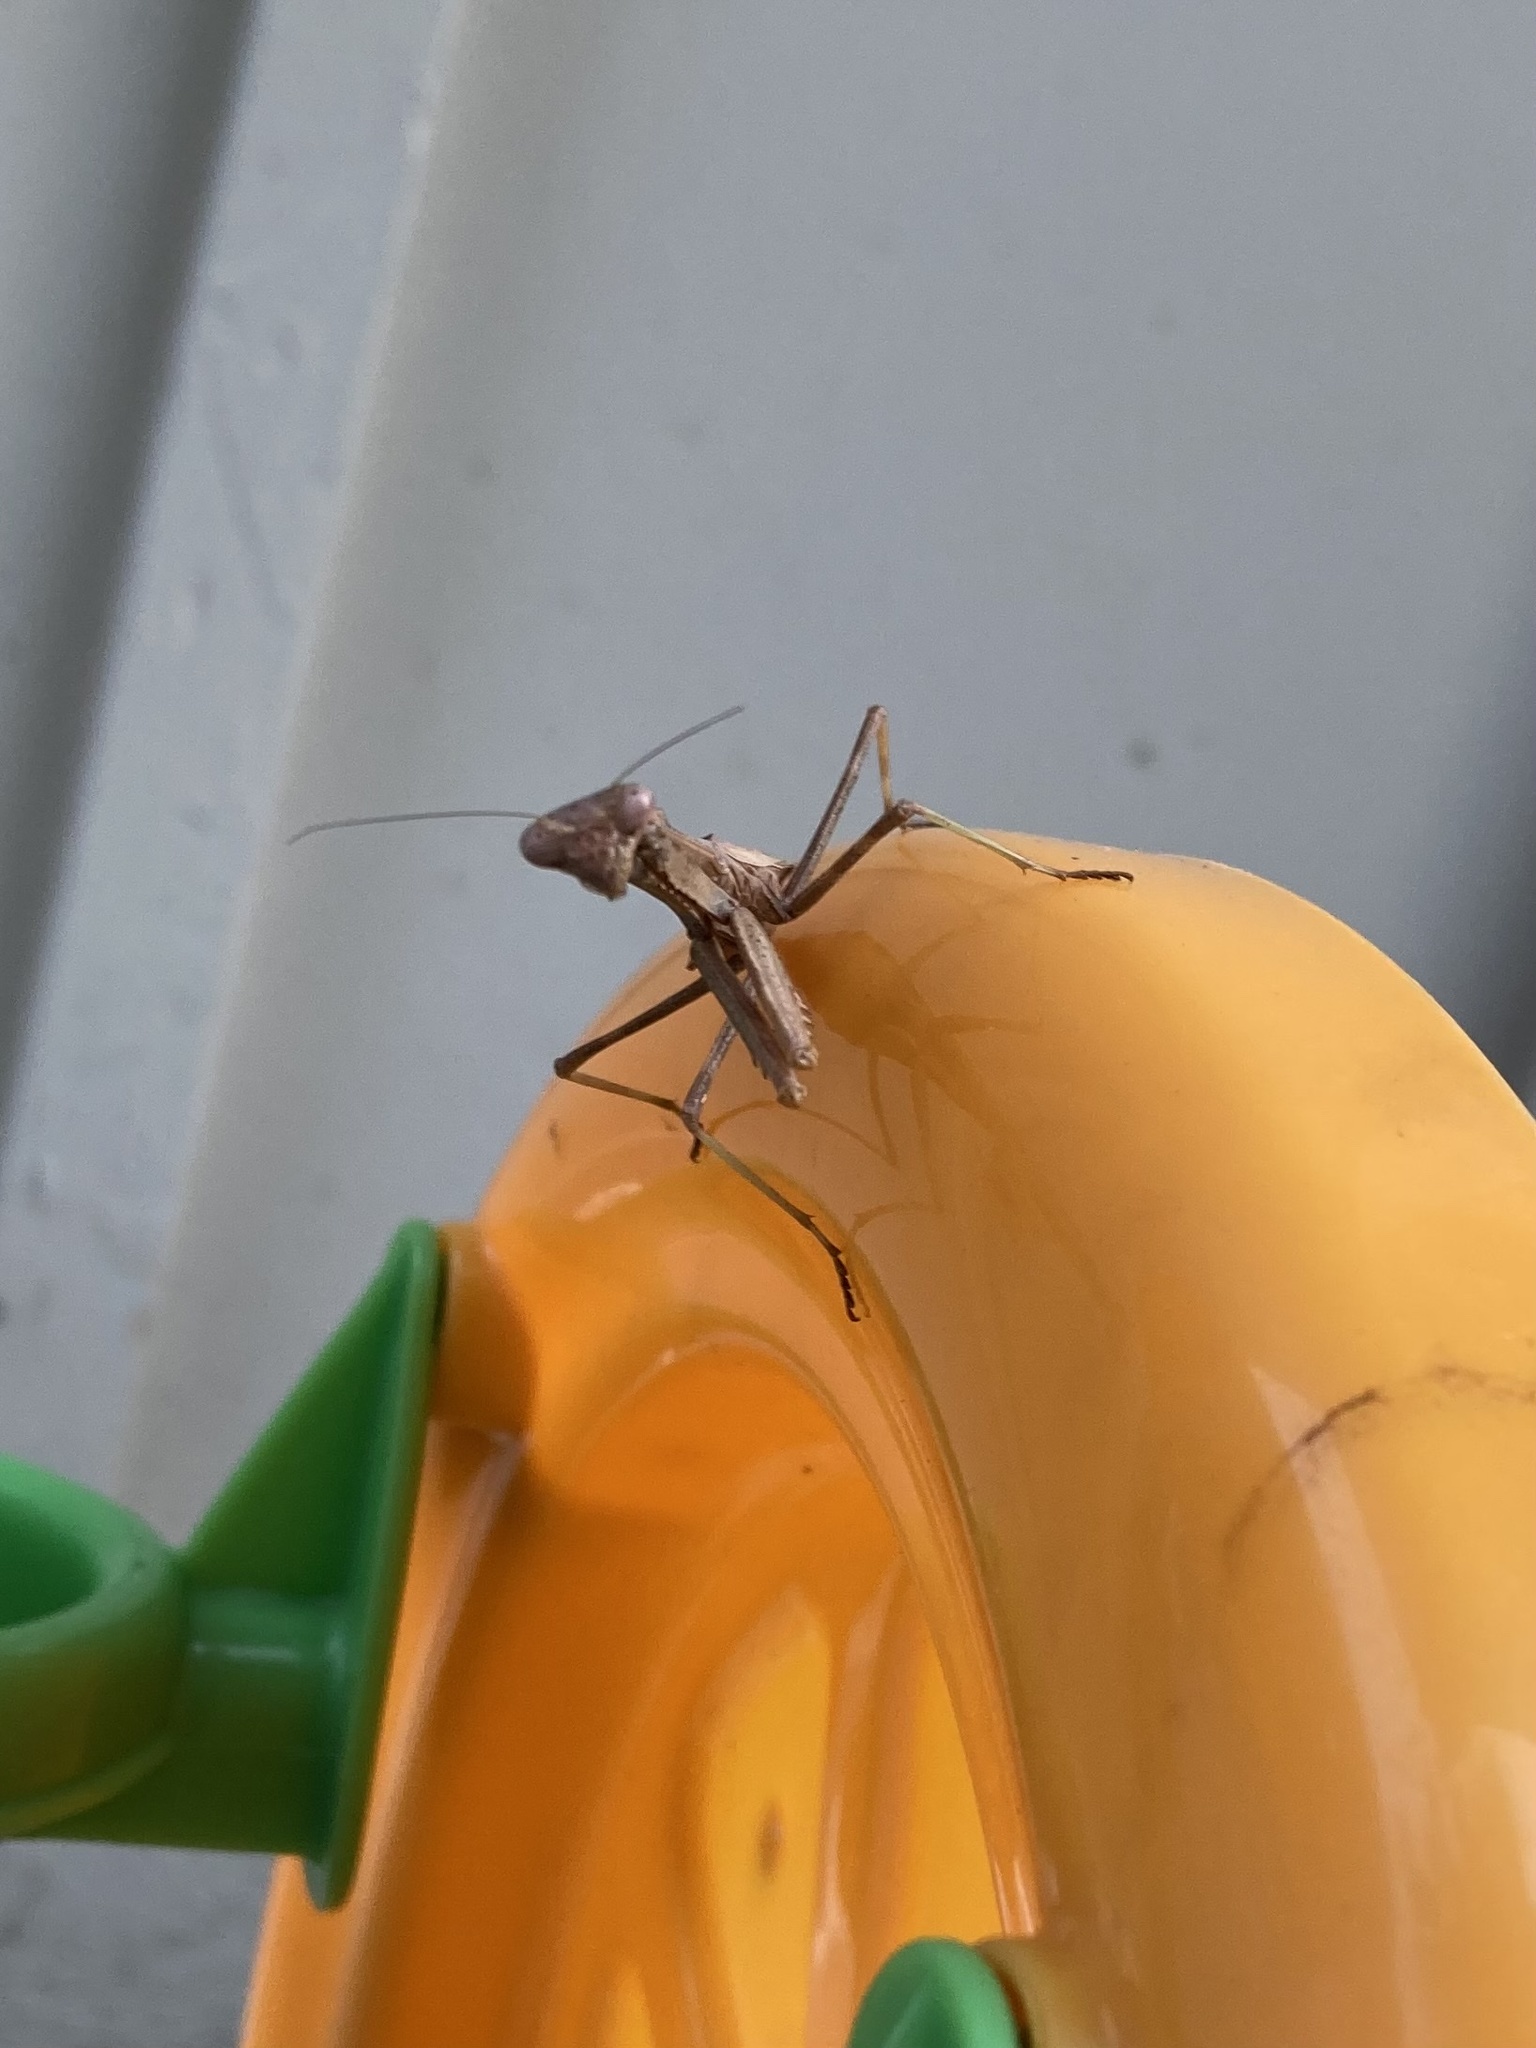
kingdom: Animalia
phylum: Arthropoda
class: Insecta
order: Mantodea
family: Mantidae
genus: Stagmomantis
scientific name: Stagmomantis carolina
